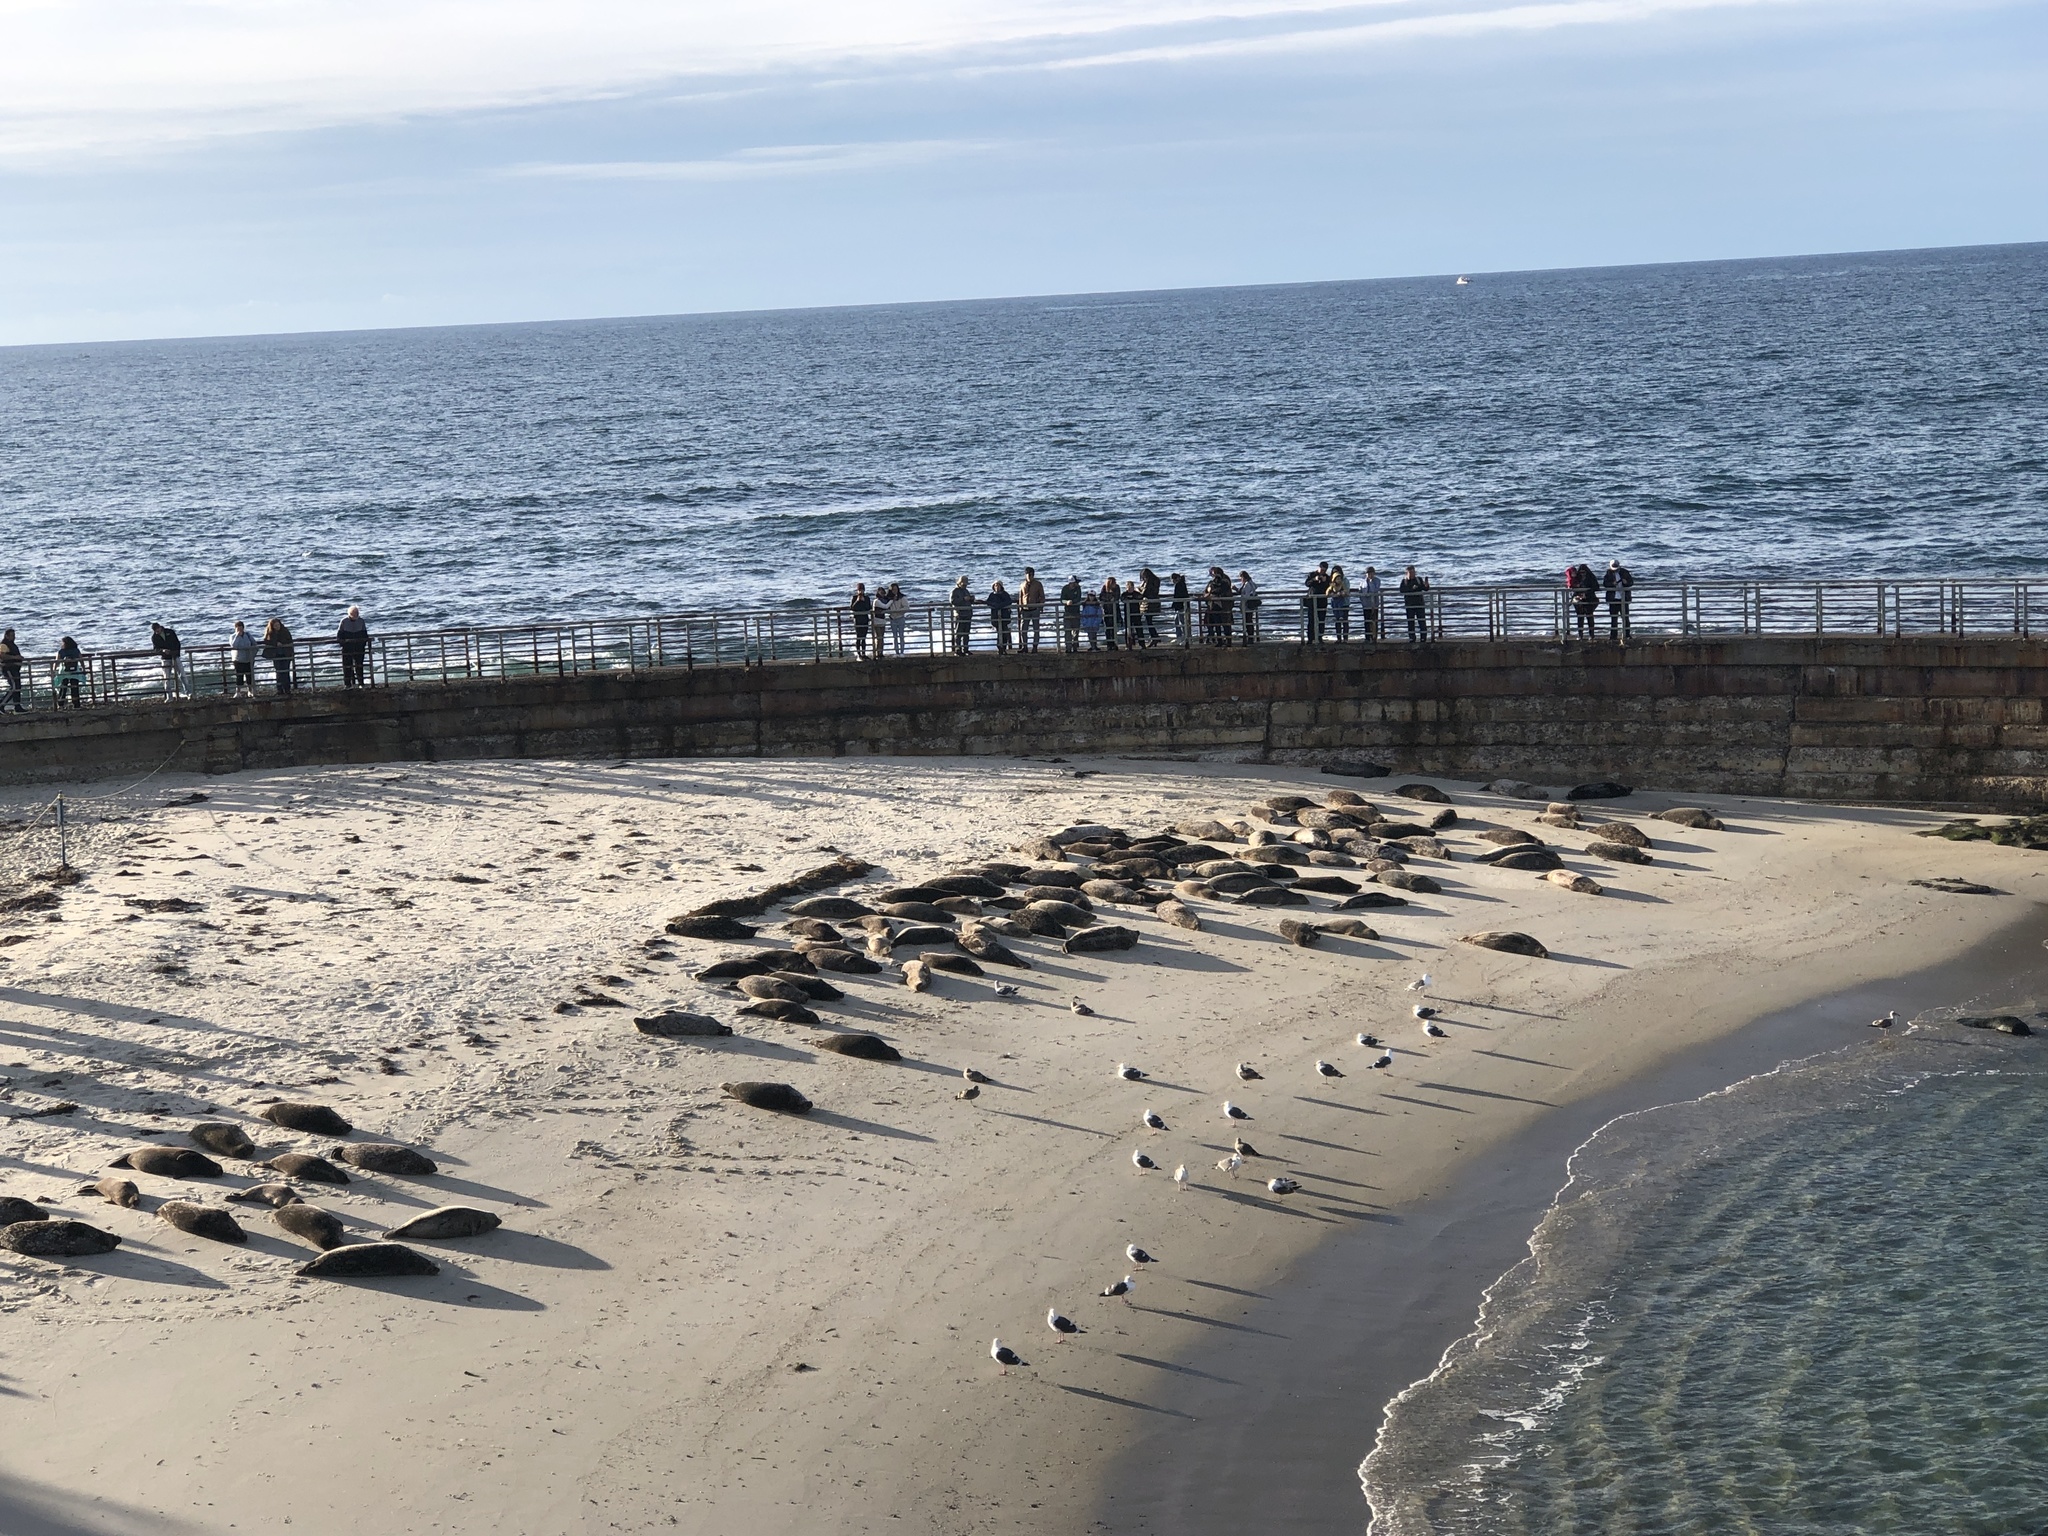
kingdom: Animalia
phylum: Chordata
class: Mammalia
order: Carnivora
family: Phocidae
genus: Phoca
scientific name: Phoca vitulina
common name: Harbor seal
